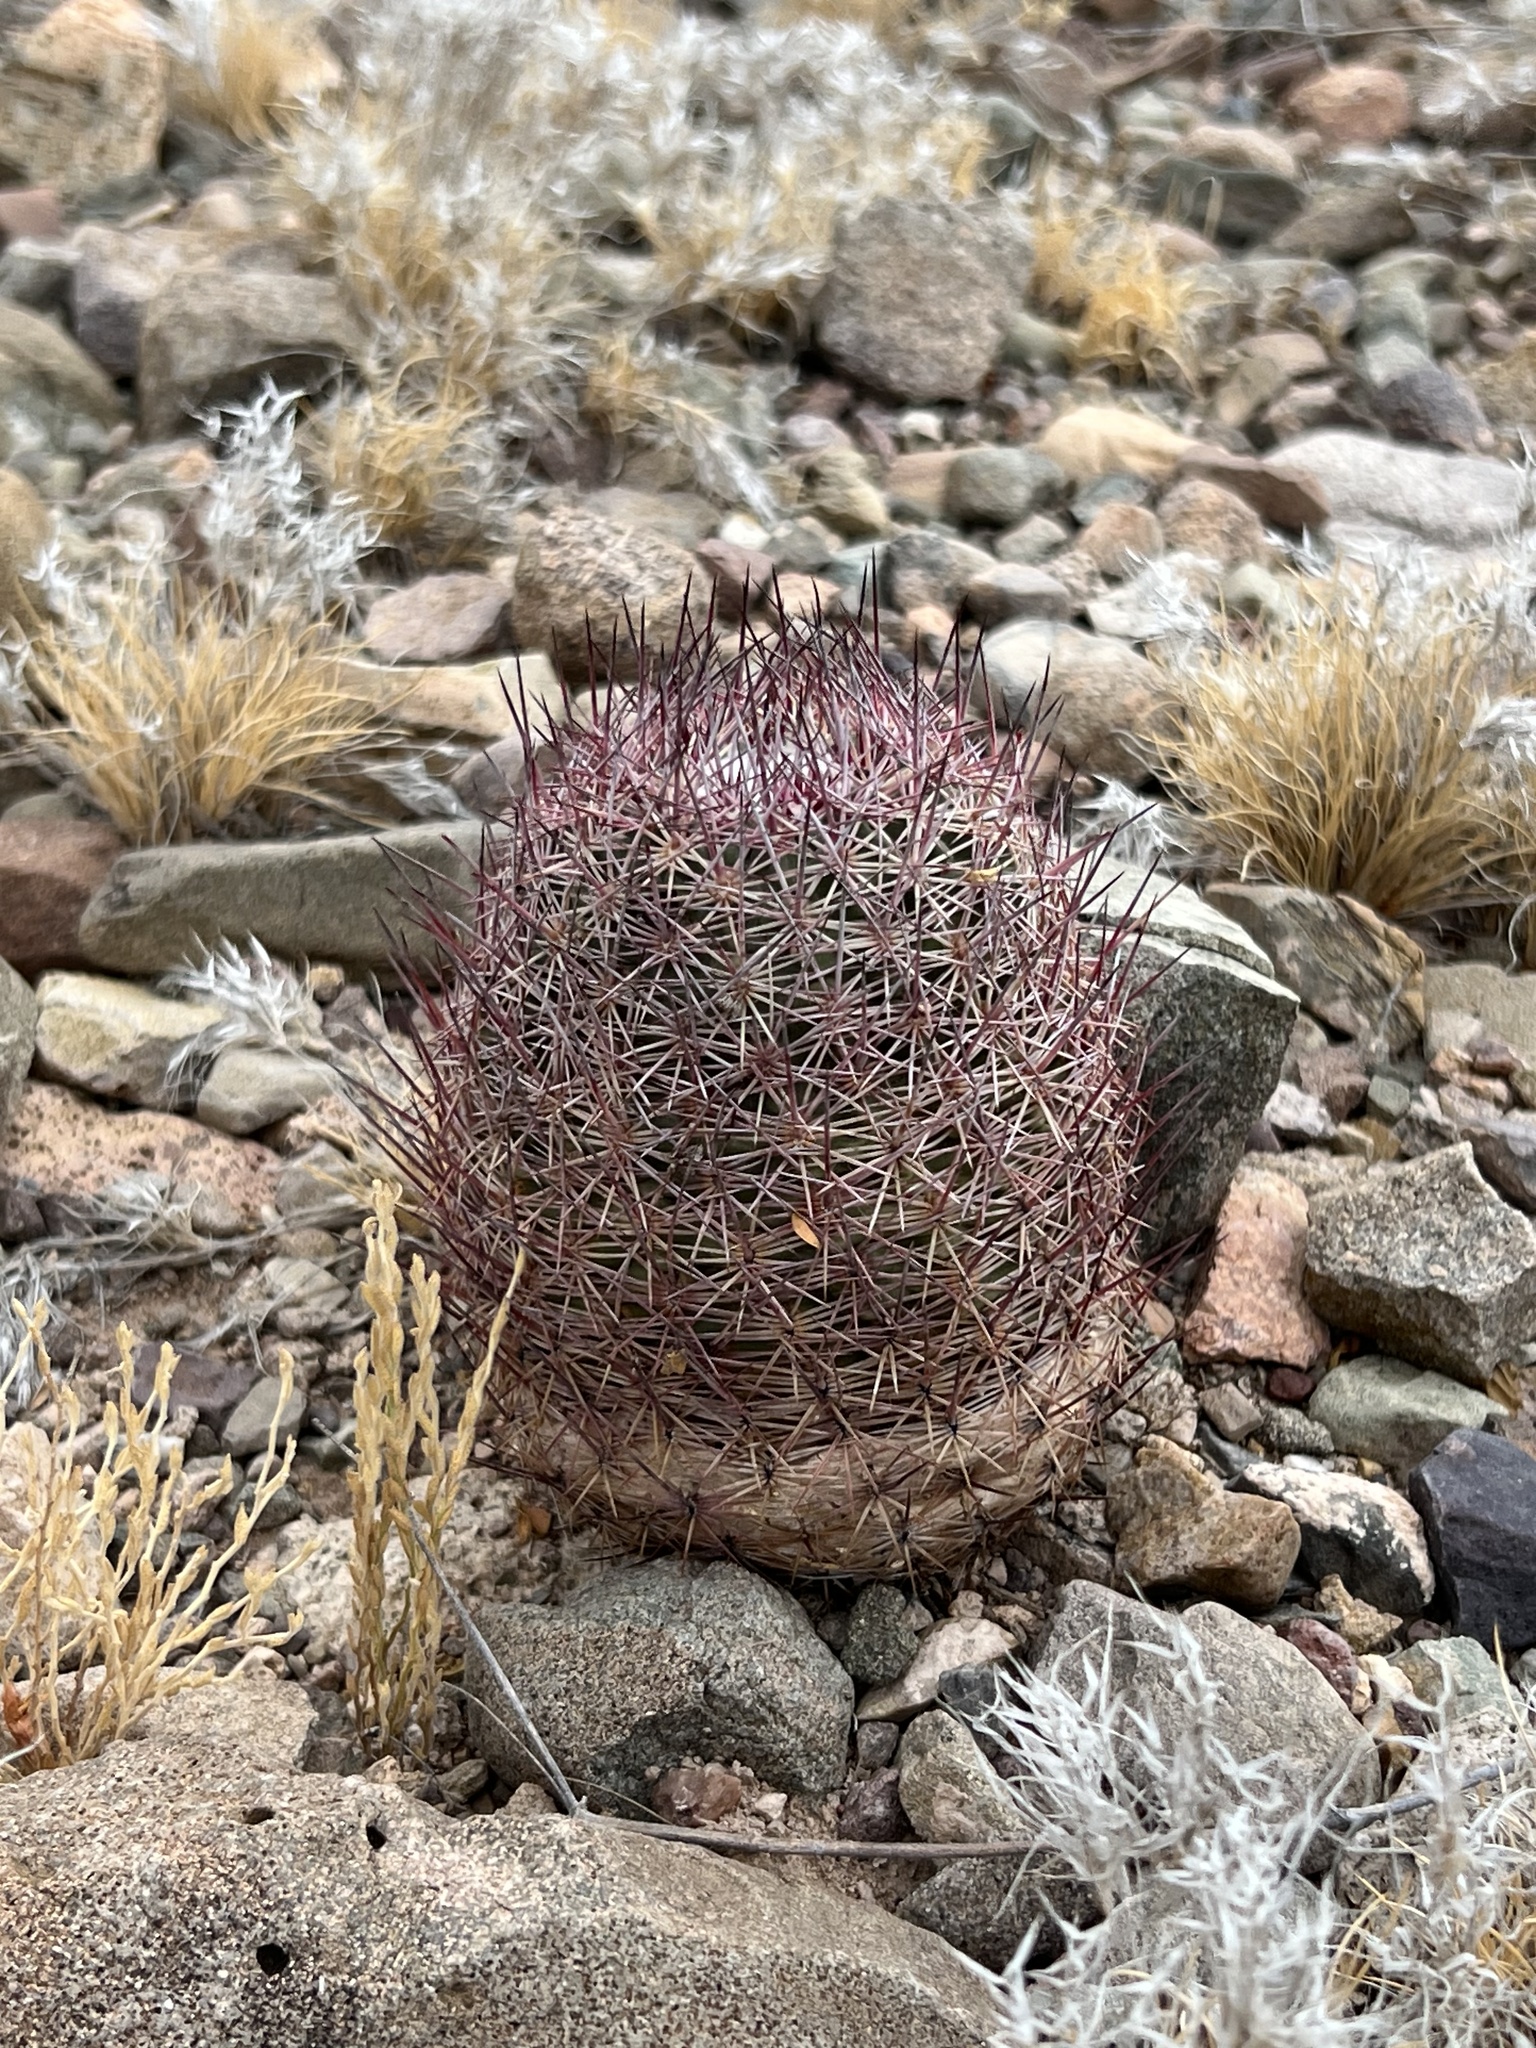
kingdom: Plantae
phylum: Tracheophyta
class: Magnoliopsida
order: Caryophyllales
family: Cactaceae
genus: Sclerocactus
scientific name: Sclerocactus johnsonii
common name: Eight-spine fishhook cactus
